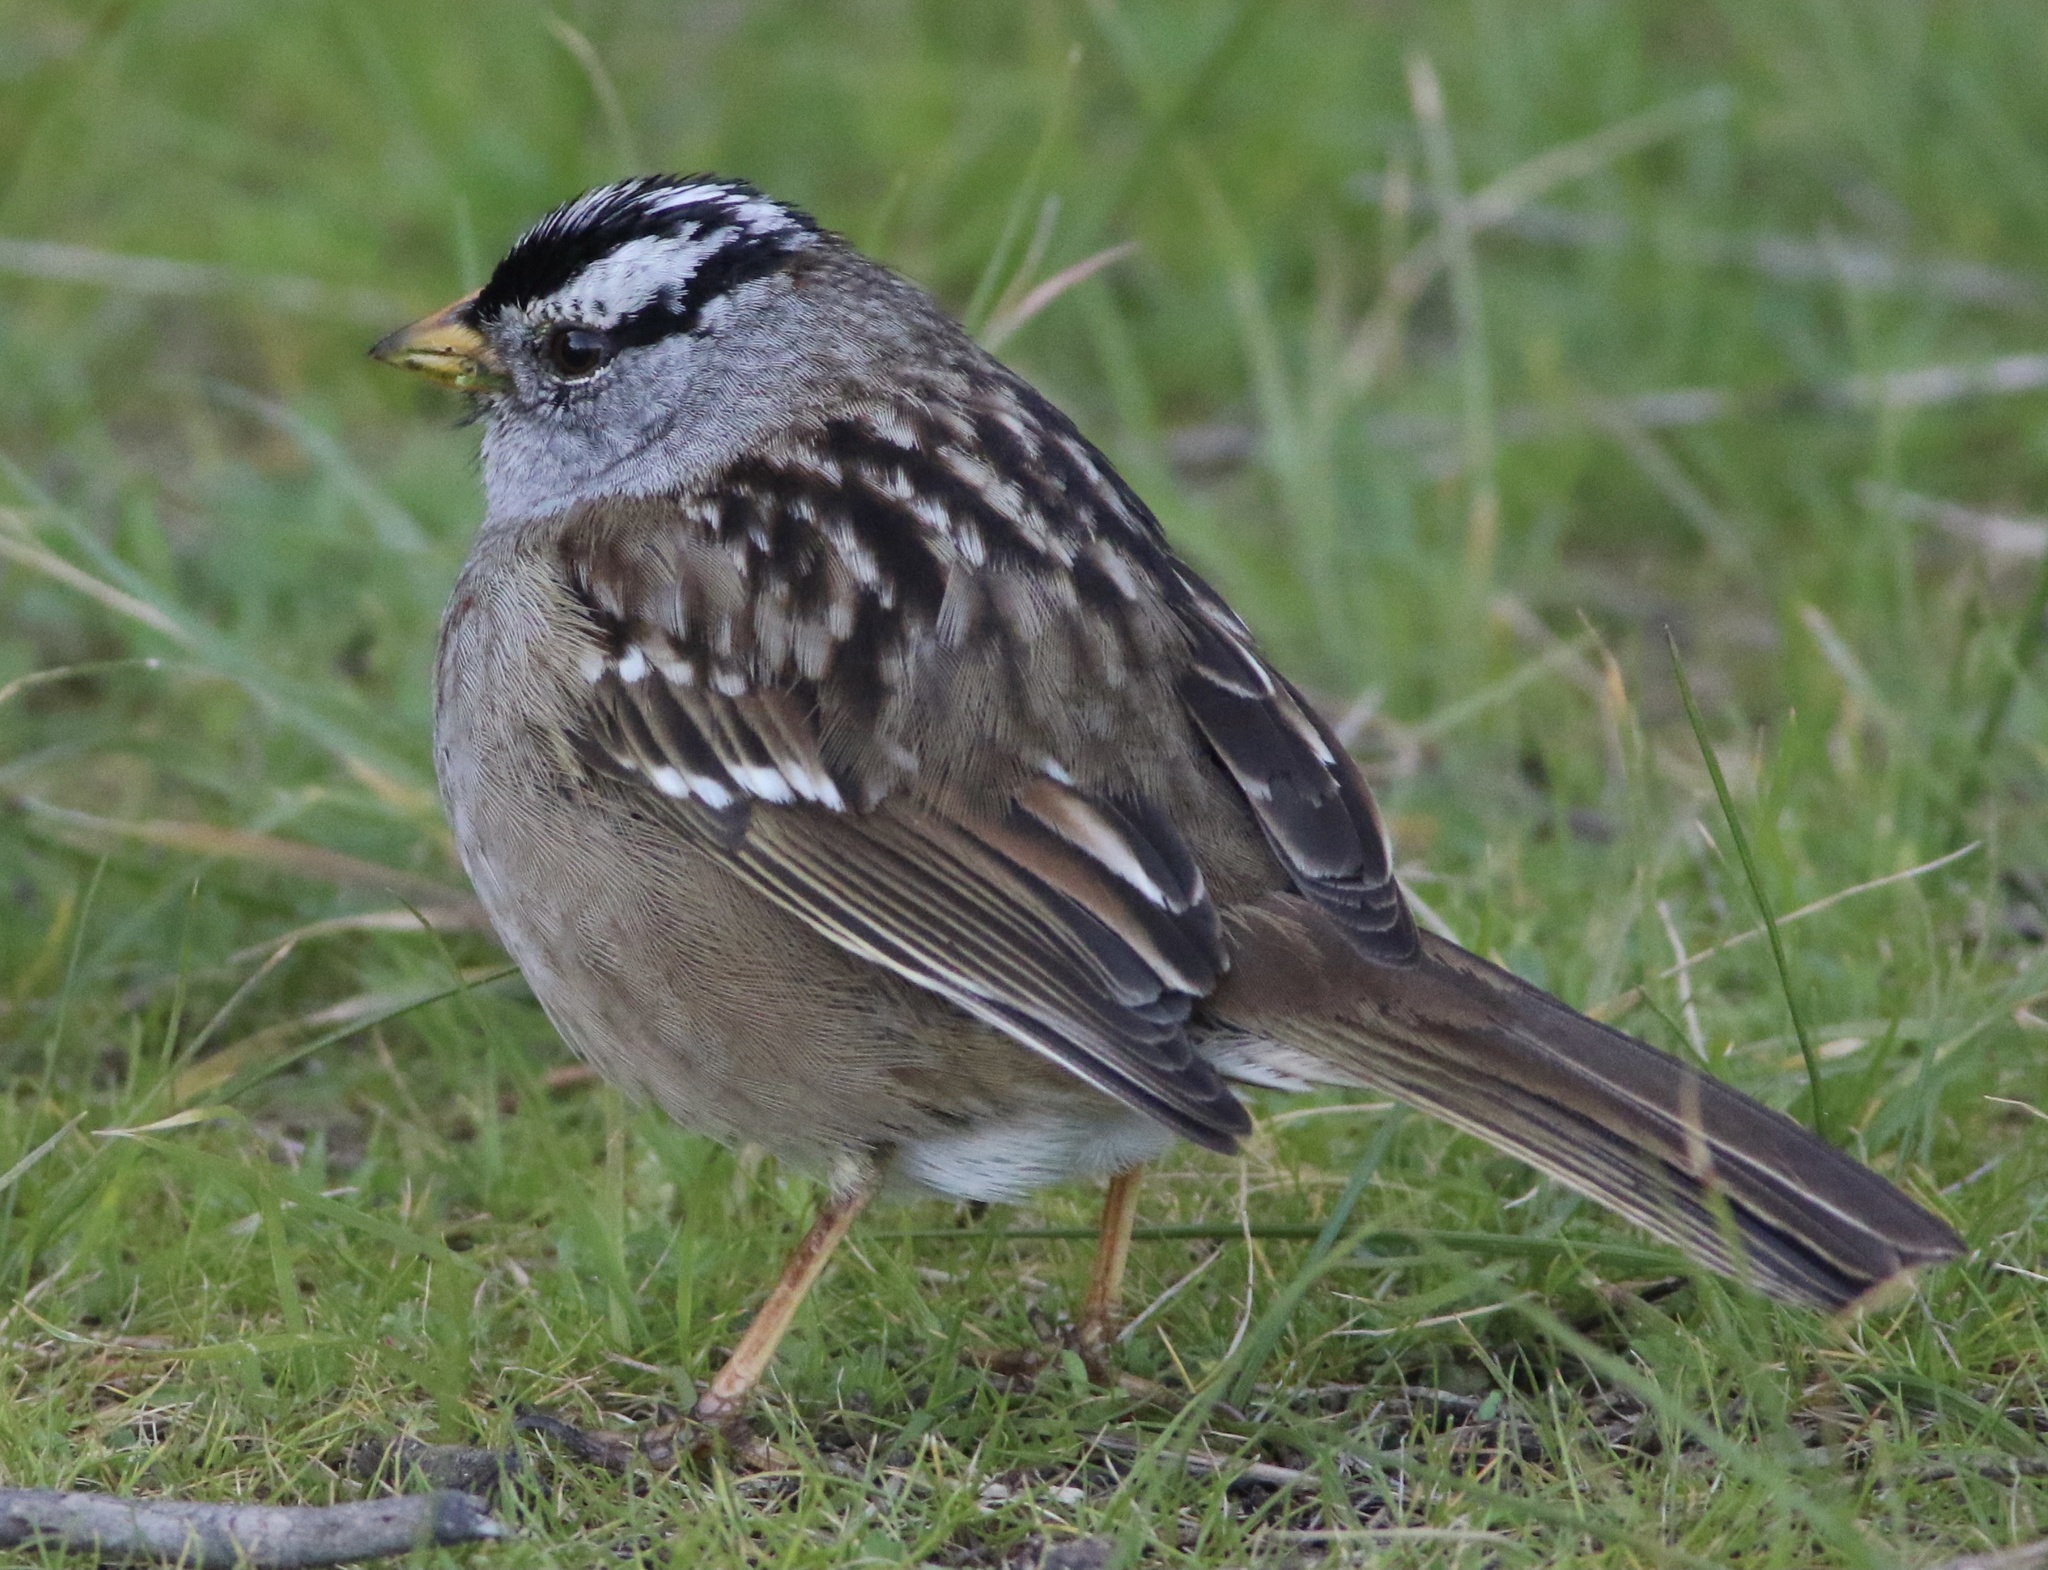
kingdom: Animalia
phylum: Chordata
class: Aves
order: Passeriformes
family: Passerellidae
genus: Zonotrichia
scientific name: Zonotrichia leucophrys
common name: White-crowned sparrow
